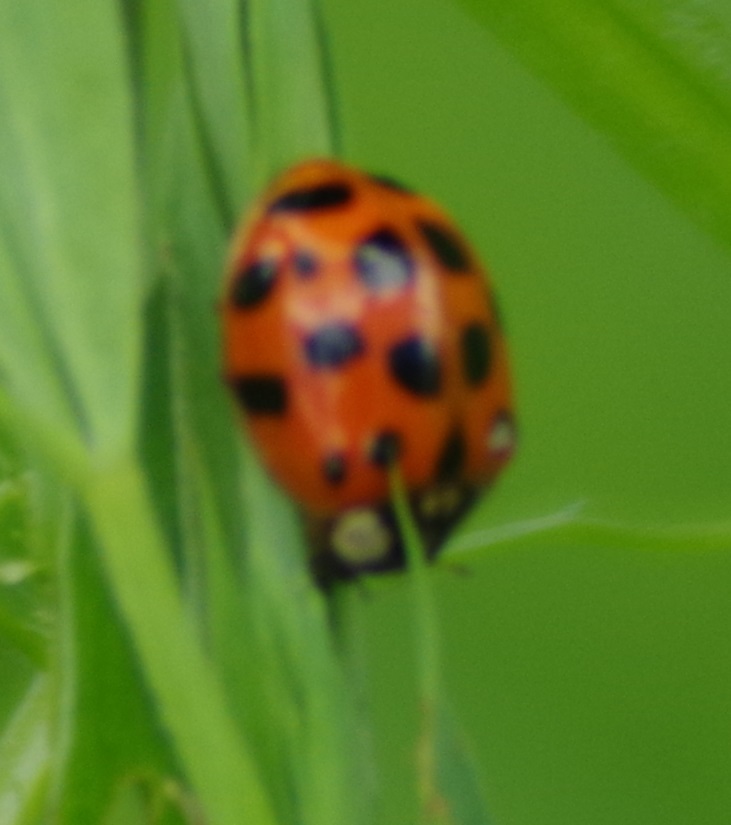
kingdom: Animalia
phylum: Arthropoda
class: Insecta
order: Coleoptera
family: Coccinellidae
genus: Harmonia
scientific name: Harmonia axyridis
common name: Harlequin ladybird
